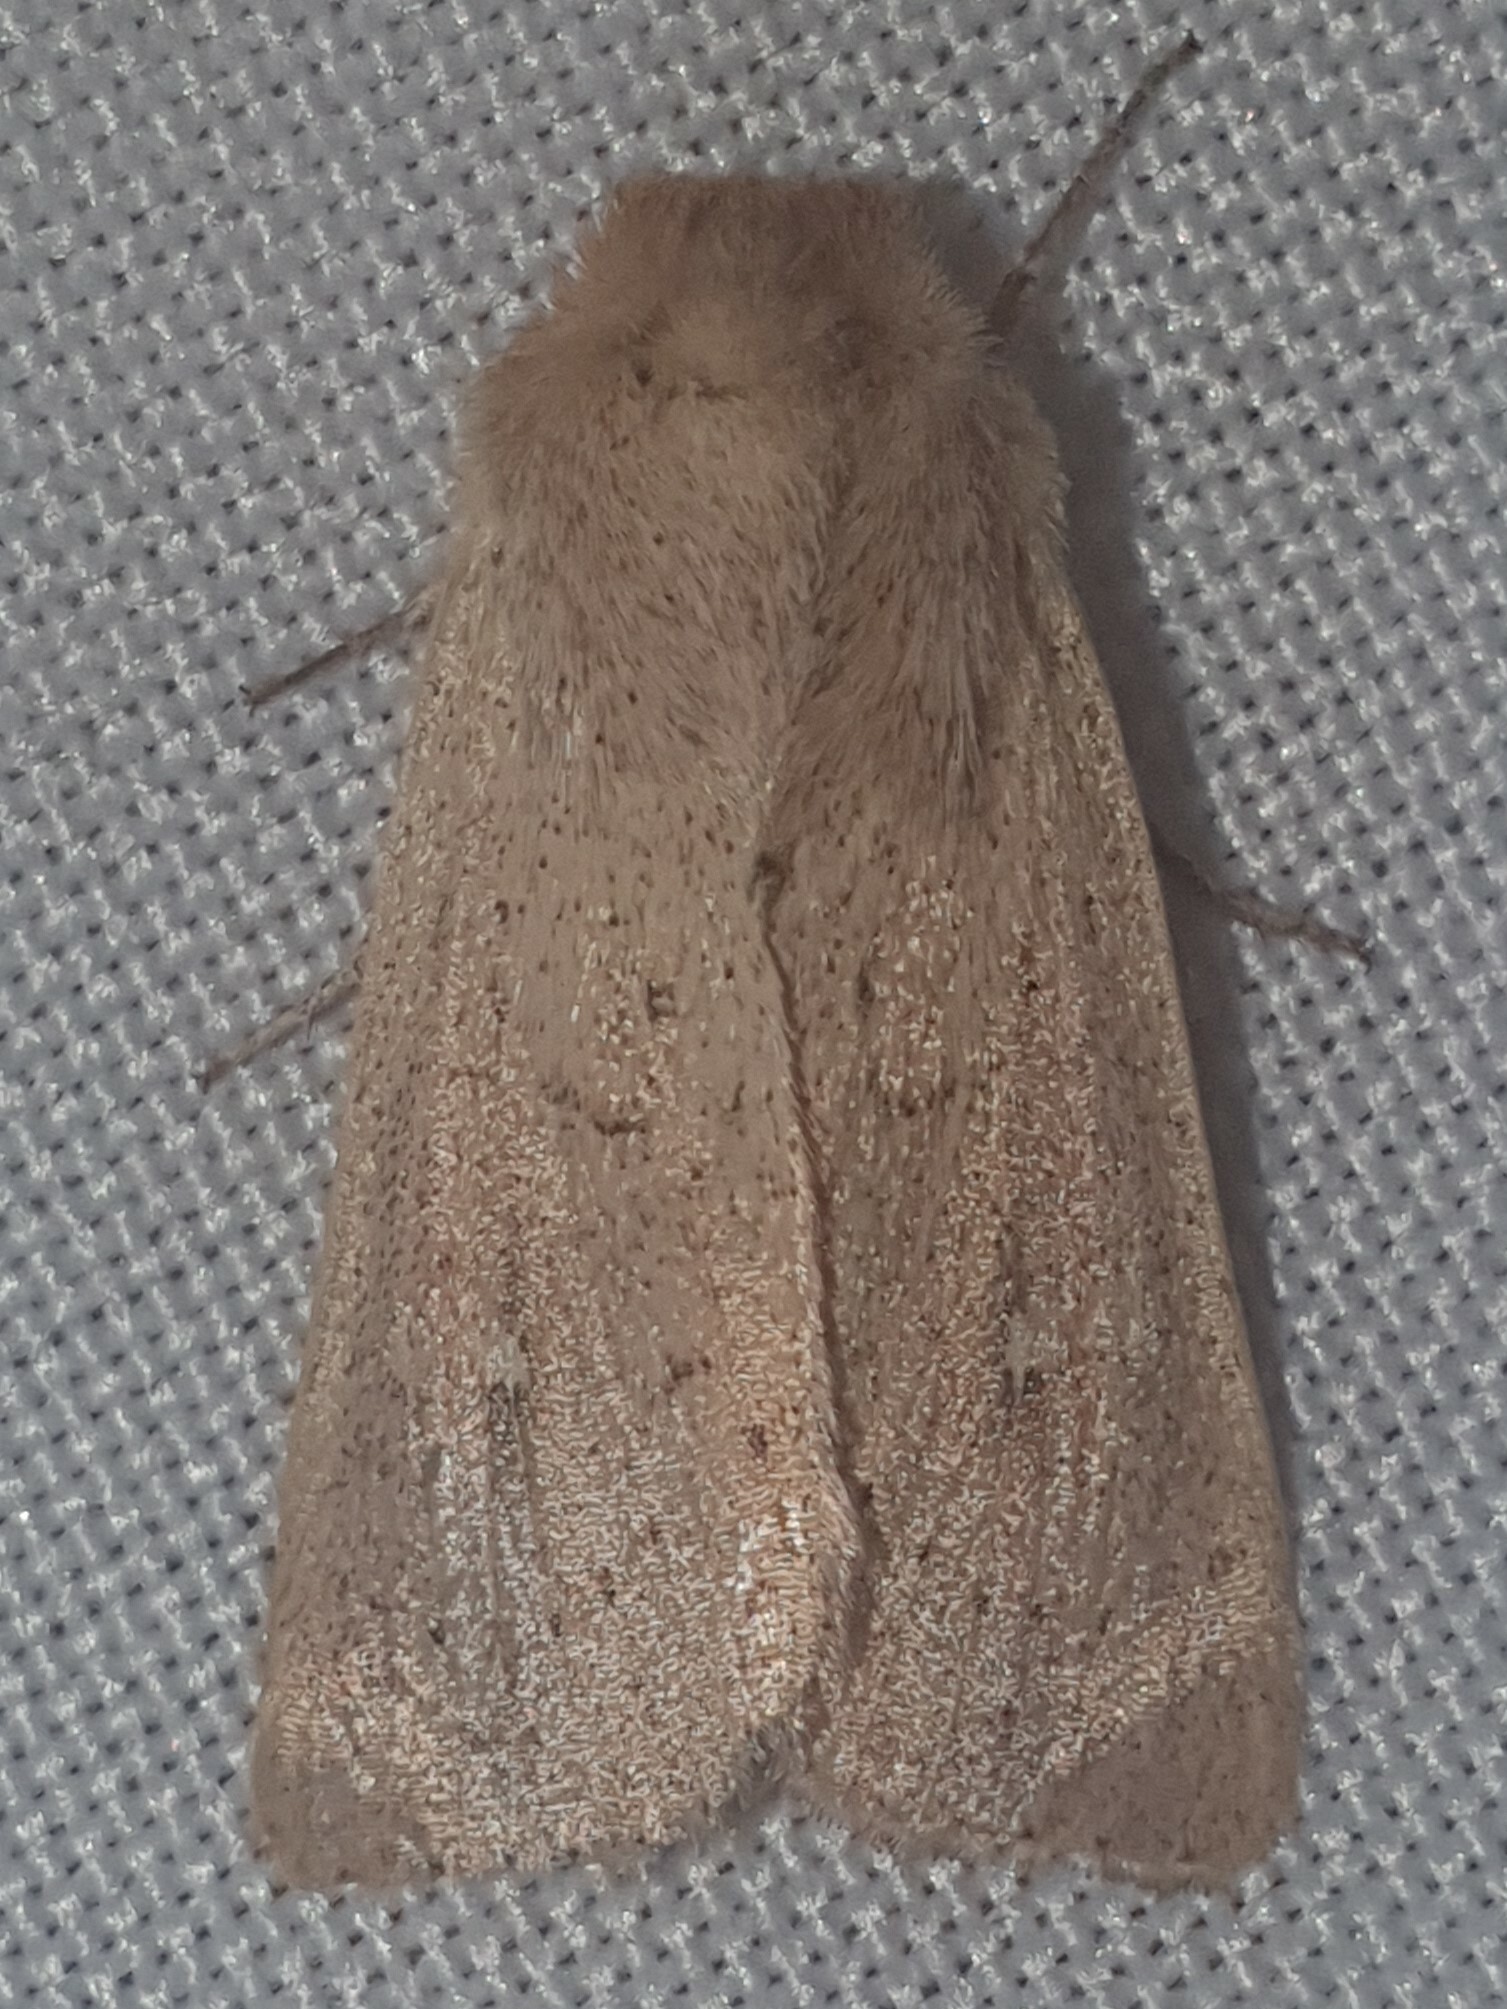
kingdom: Animalia
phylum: Arthropoda
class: Insecta
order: Lepidoptera
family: Noctuidae
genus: Mythimna
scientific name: Mythimna ferrago
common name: Clay
